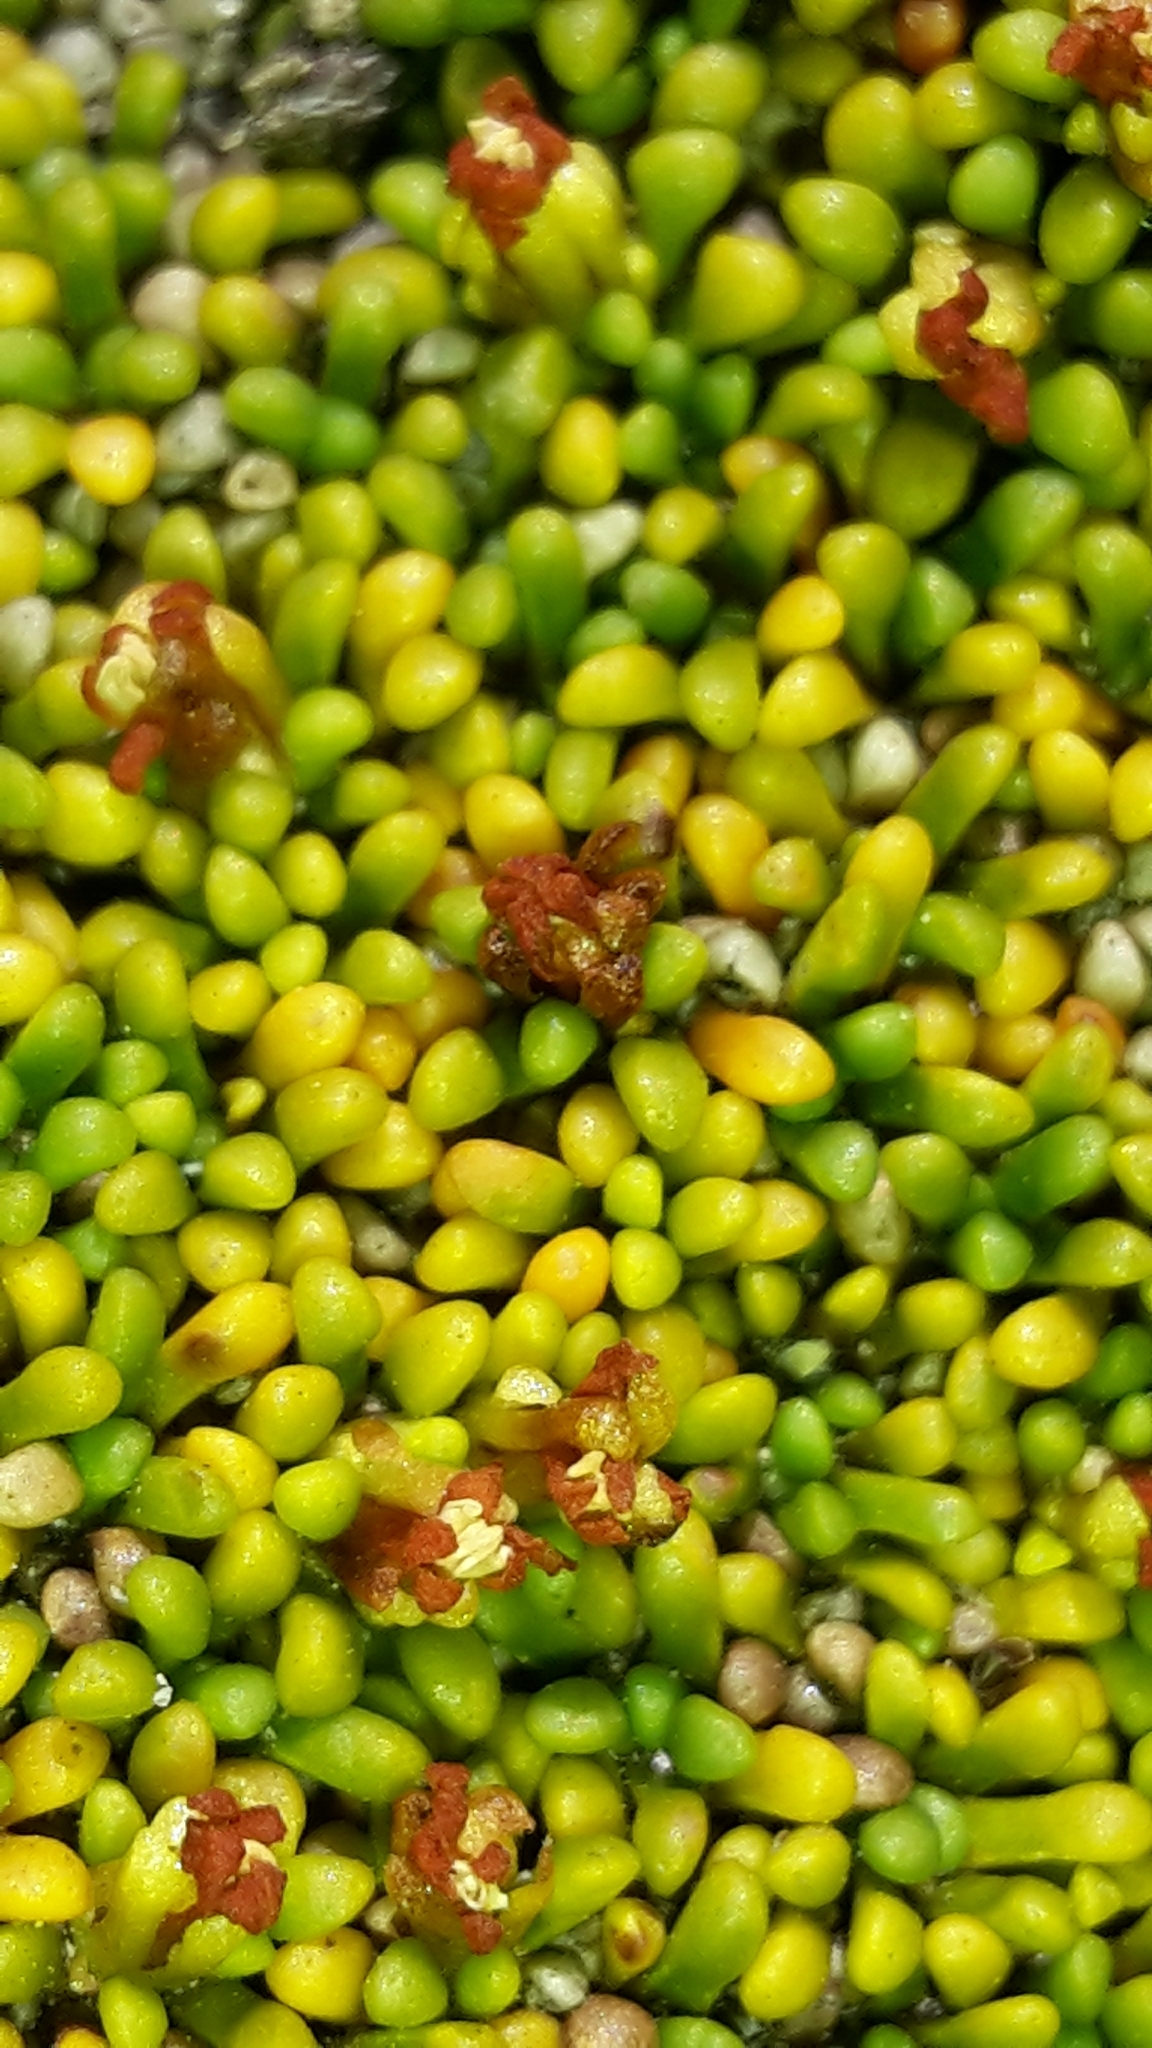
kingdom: Plantae
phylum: Tracheophyta
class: Magnoliopsida
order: Asterales
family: Stylidiaceae
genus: Phyllachne
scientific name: Phyllachne rubra
